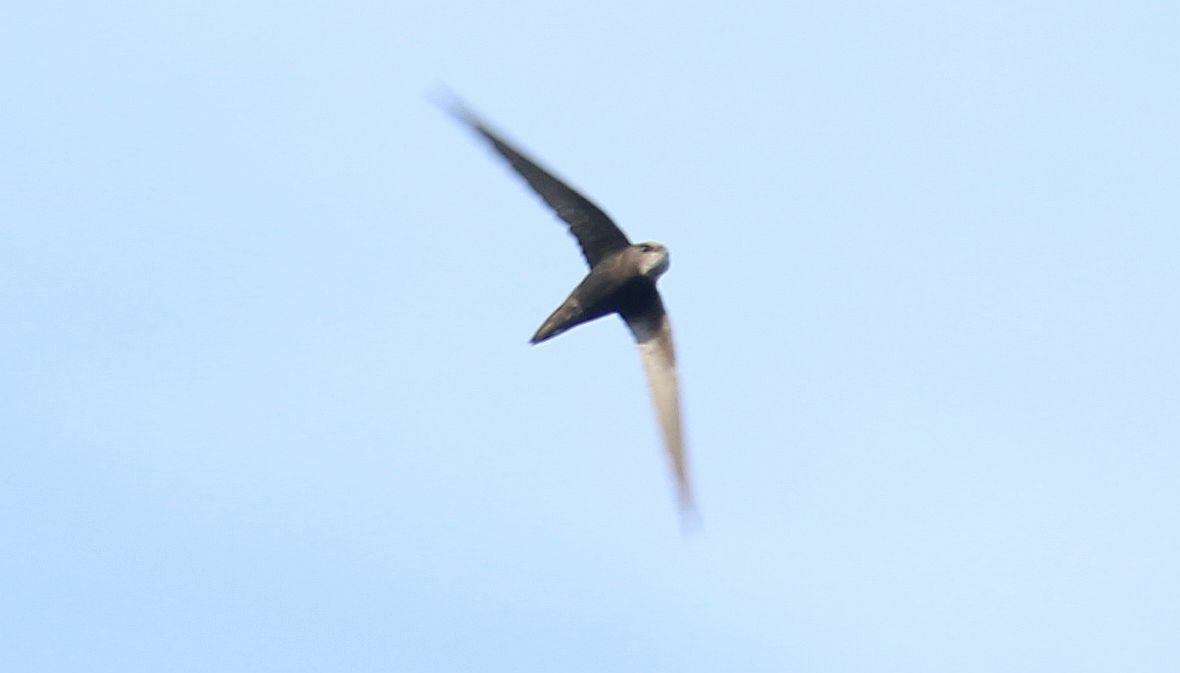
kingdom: Animalia
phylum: Chordata
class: Aves
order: Apodiformes
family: Apodidae
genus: Apus
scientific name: Apus apus
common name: Common swift
